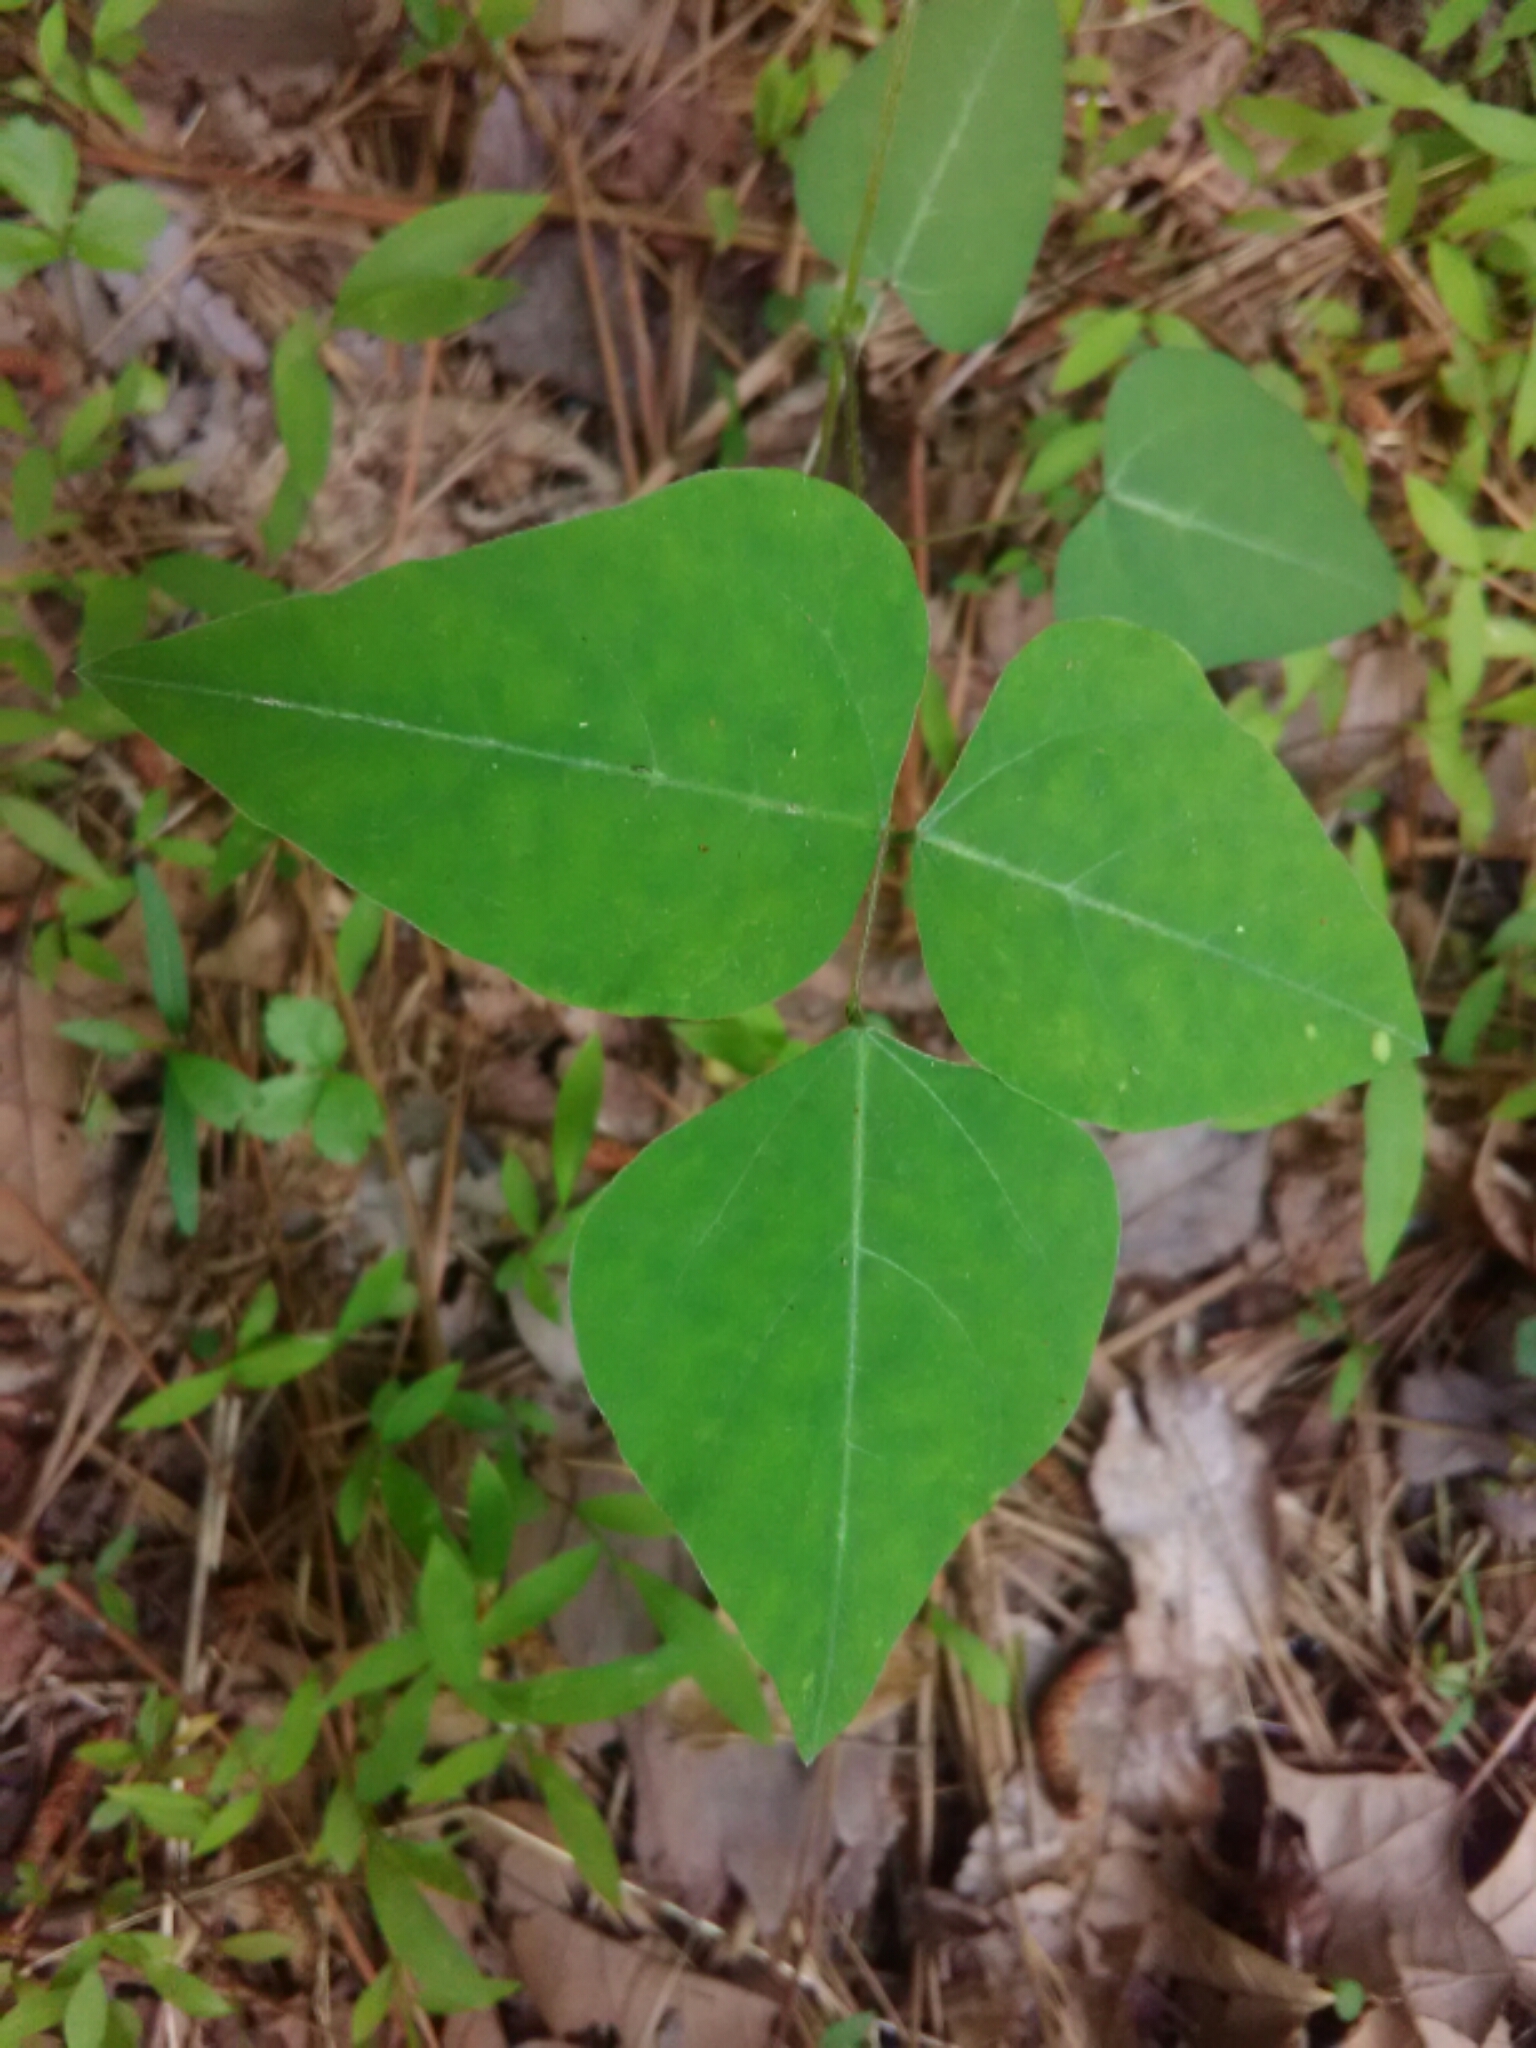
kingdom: Plantae
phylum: Tracheophyta
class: Magnoliopsida
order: Fabales
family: Fabaceae
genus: Amphicarpaea
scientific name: Amphicarpaea bracteata
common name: American hog peanut
